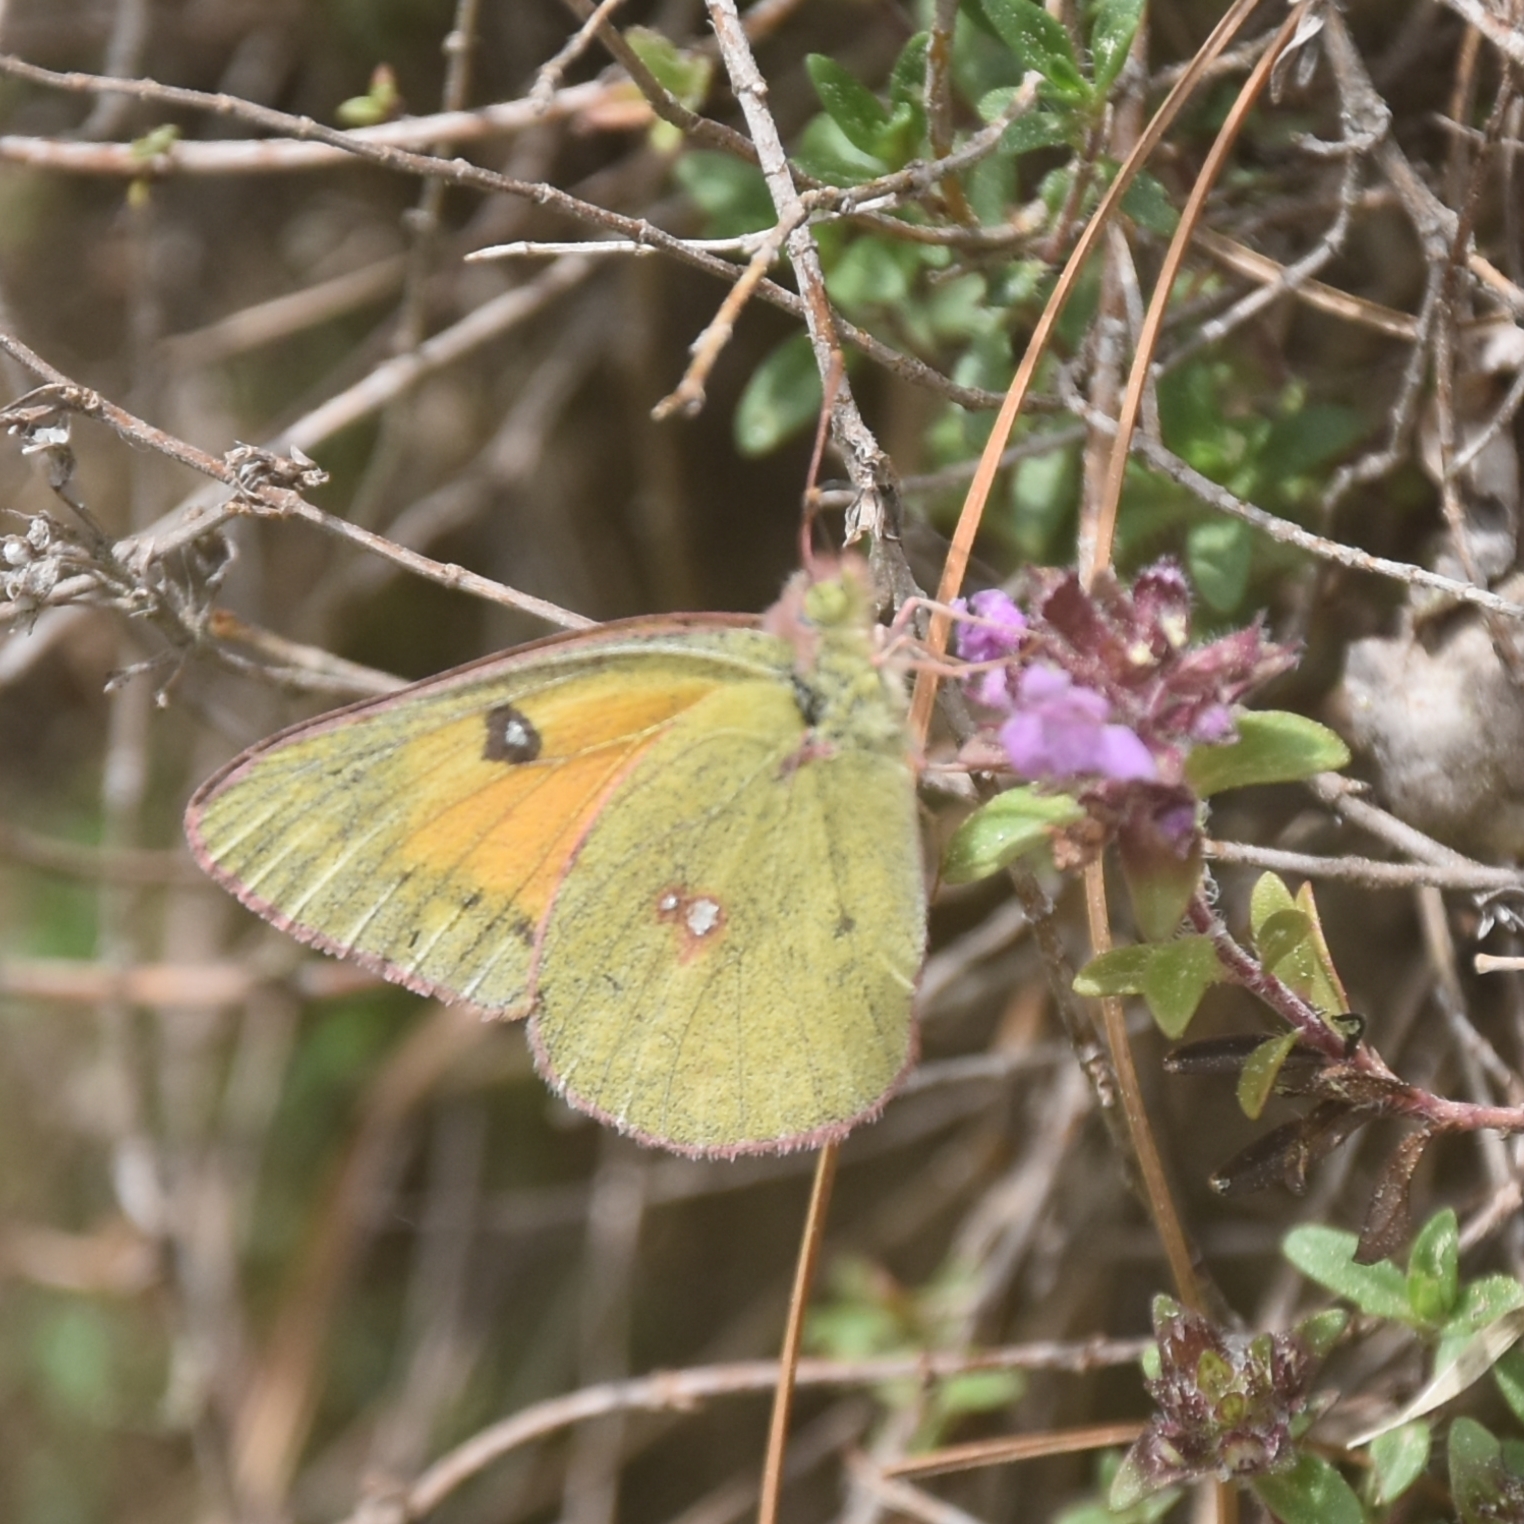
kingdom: Animalia
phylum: Arthropoda
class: Insecta
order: Lepidoptera
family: Pieridae
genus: Colias
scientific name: Colias fieldii
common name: Dark clouded yellow
